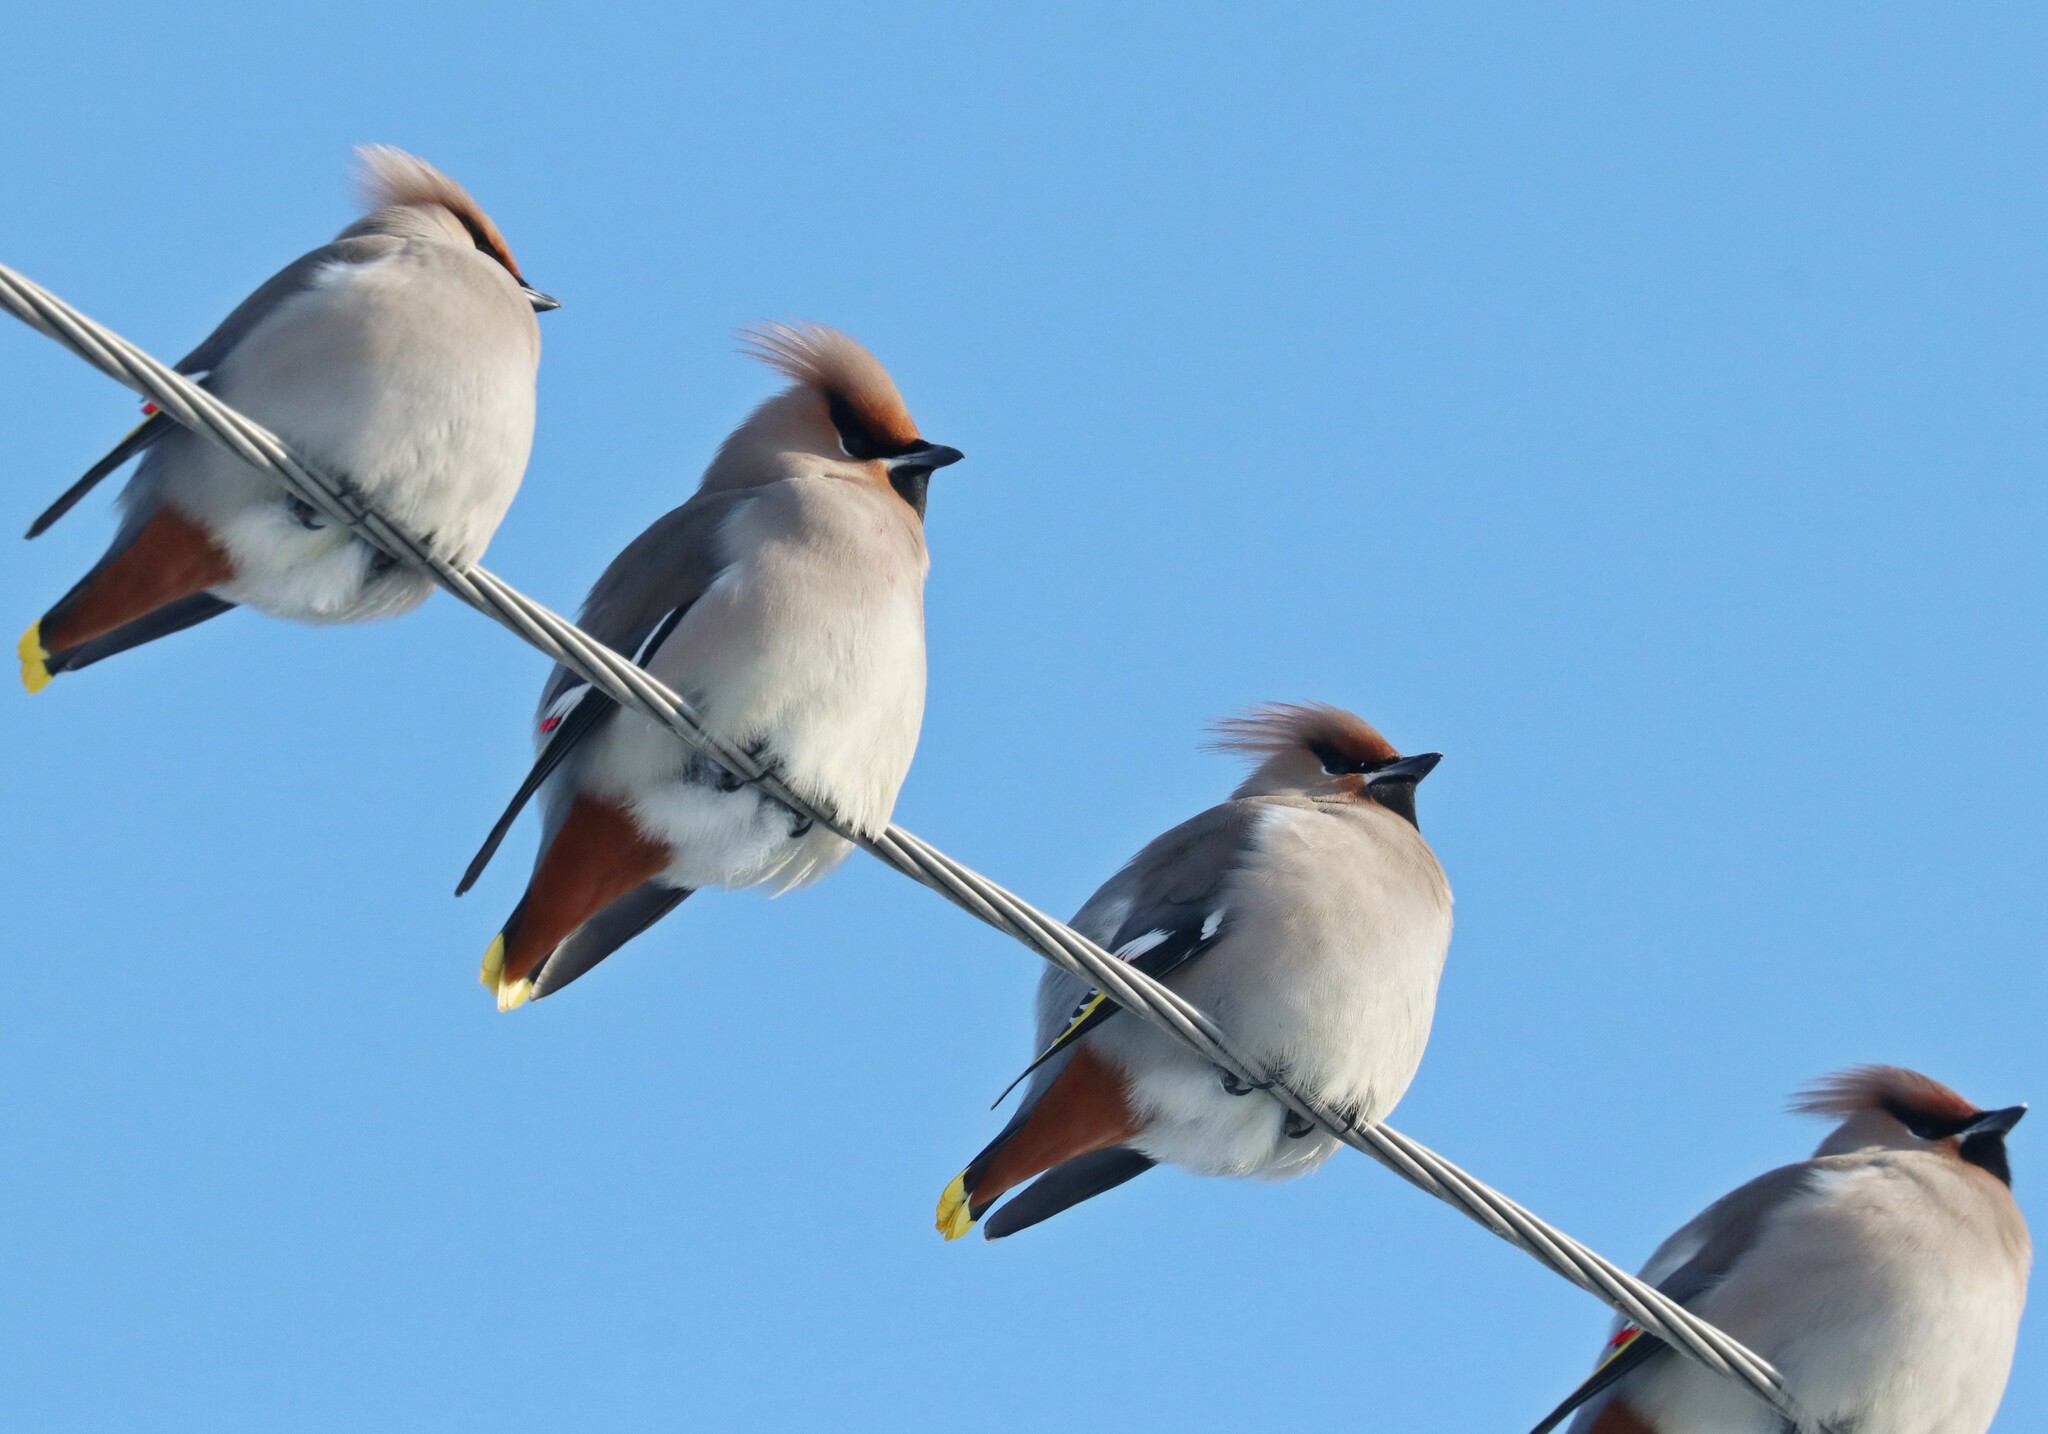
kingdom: Animalia
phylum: Chordata
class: Aves
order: Passeriformes
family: Bombycillidae
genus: Bombycilla
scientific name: Bombycilla garrulus
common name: Bohemian waxwing
